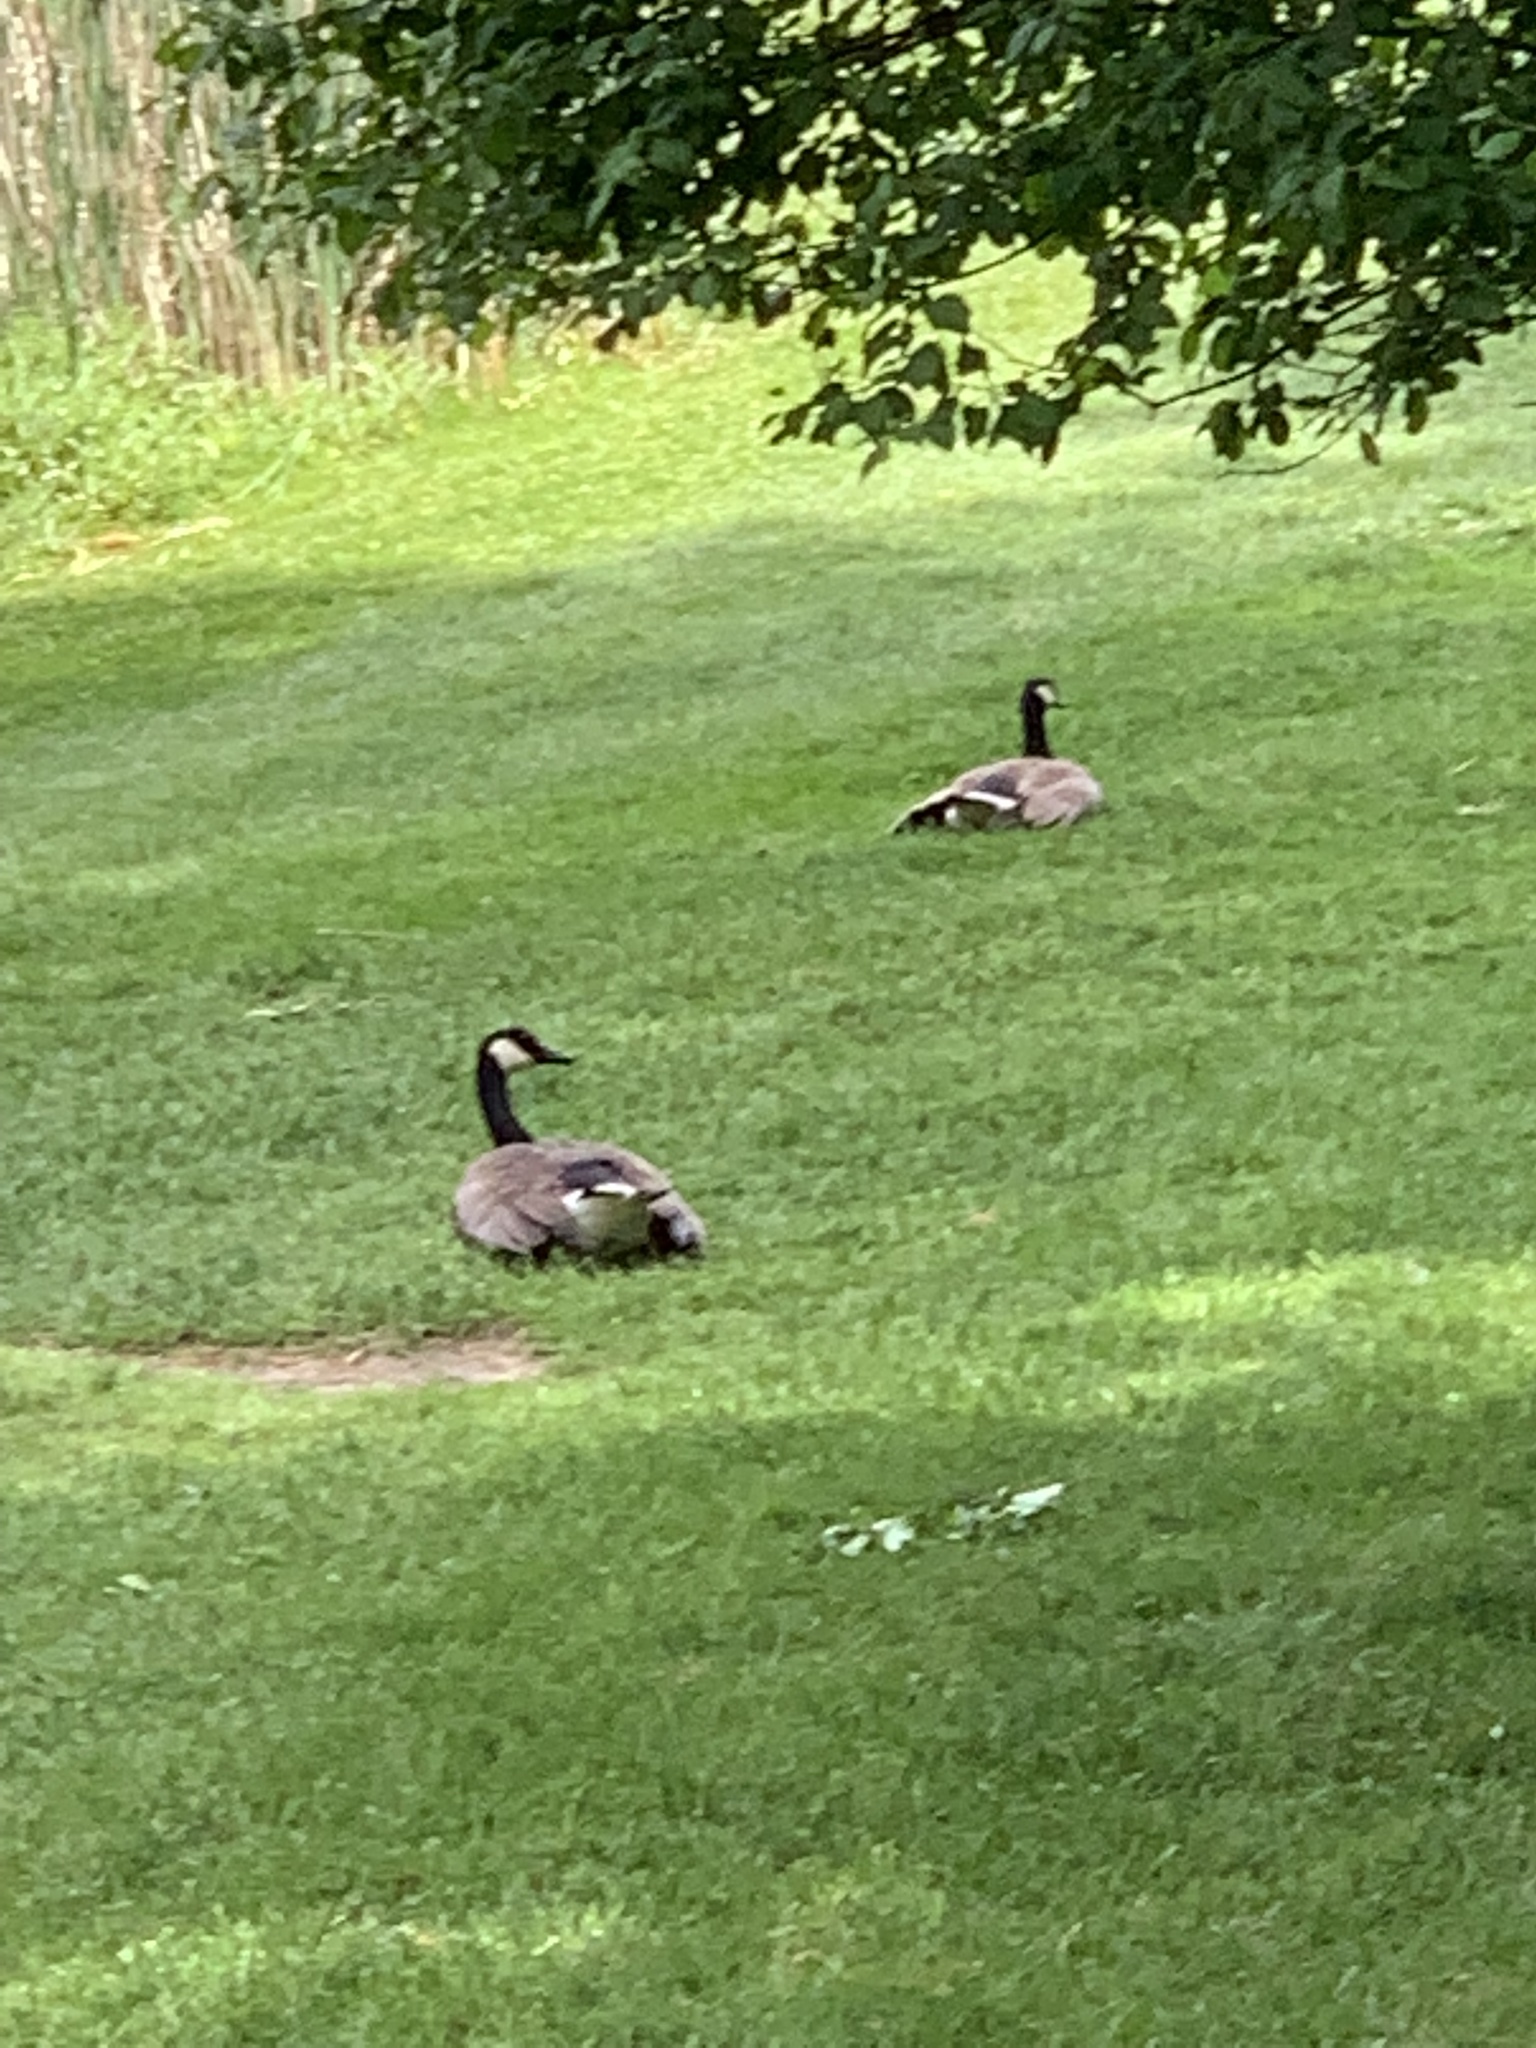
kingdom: Animalia
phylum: Chordata
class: Aves
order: Anseriformes
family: Anatidae
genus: Branta
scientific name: Branta canadensis
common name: Canada goose
